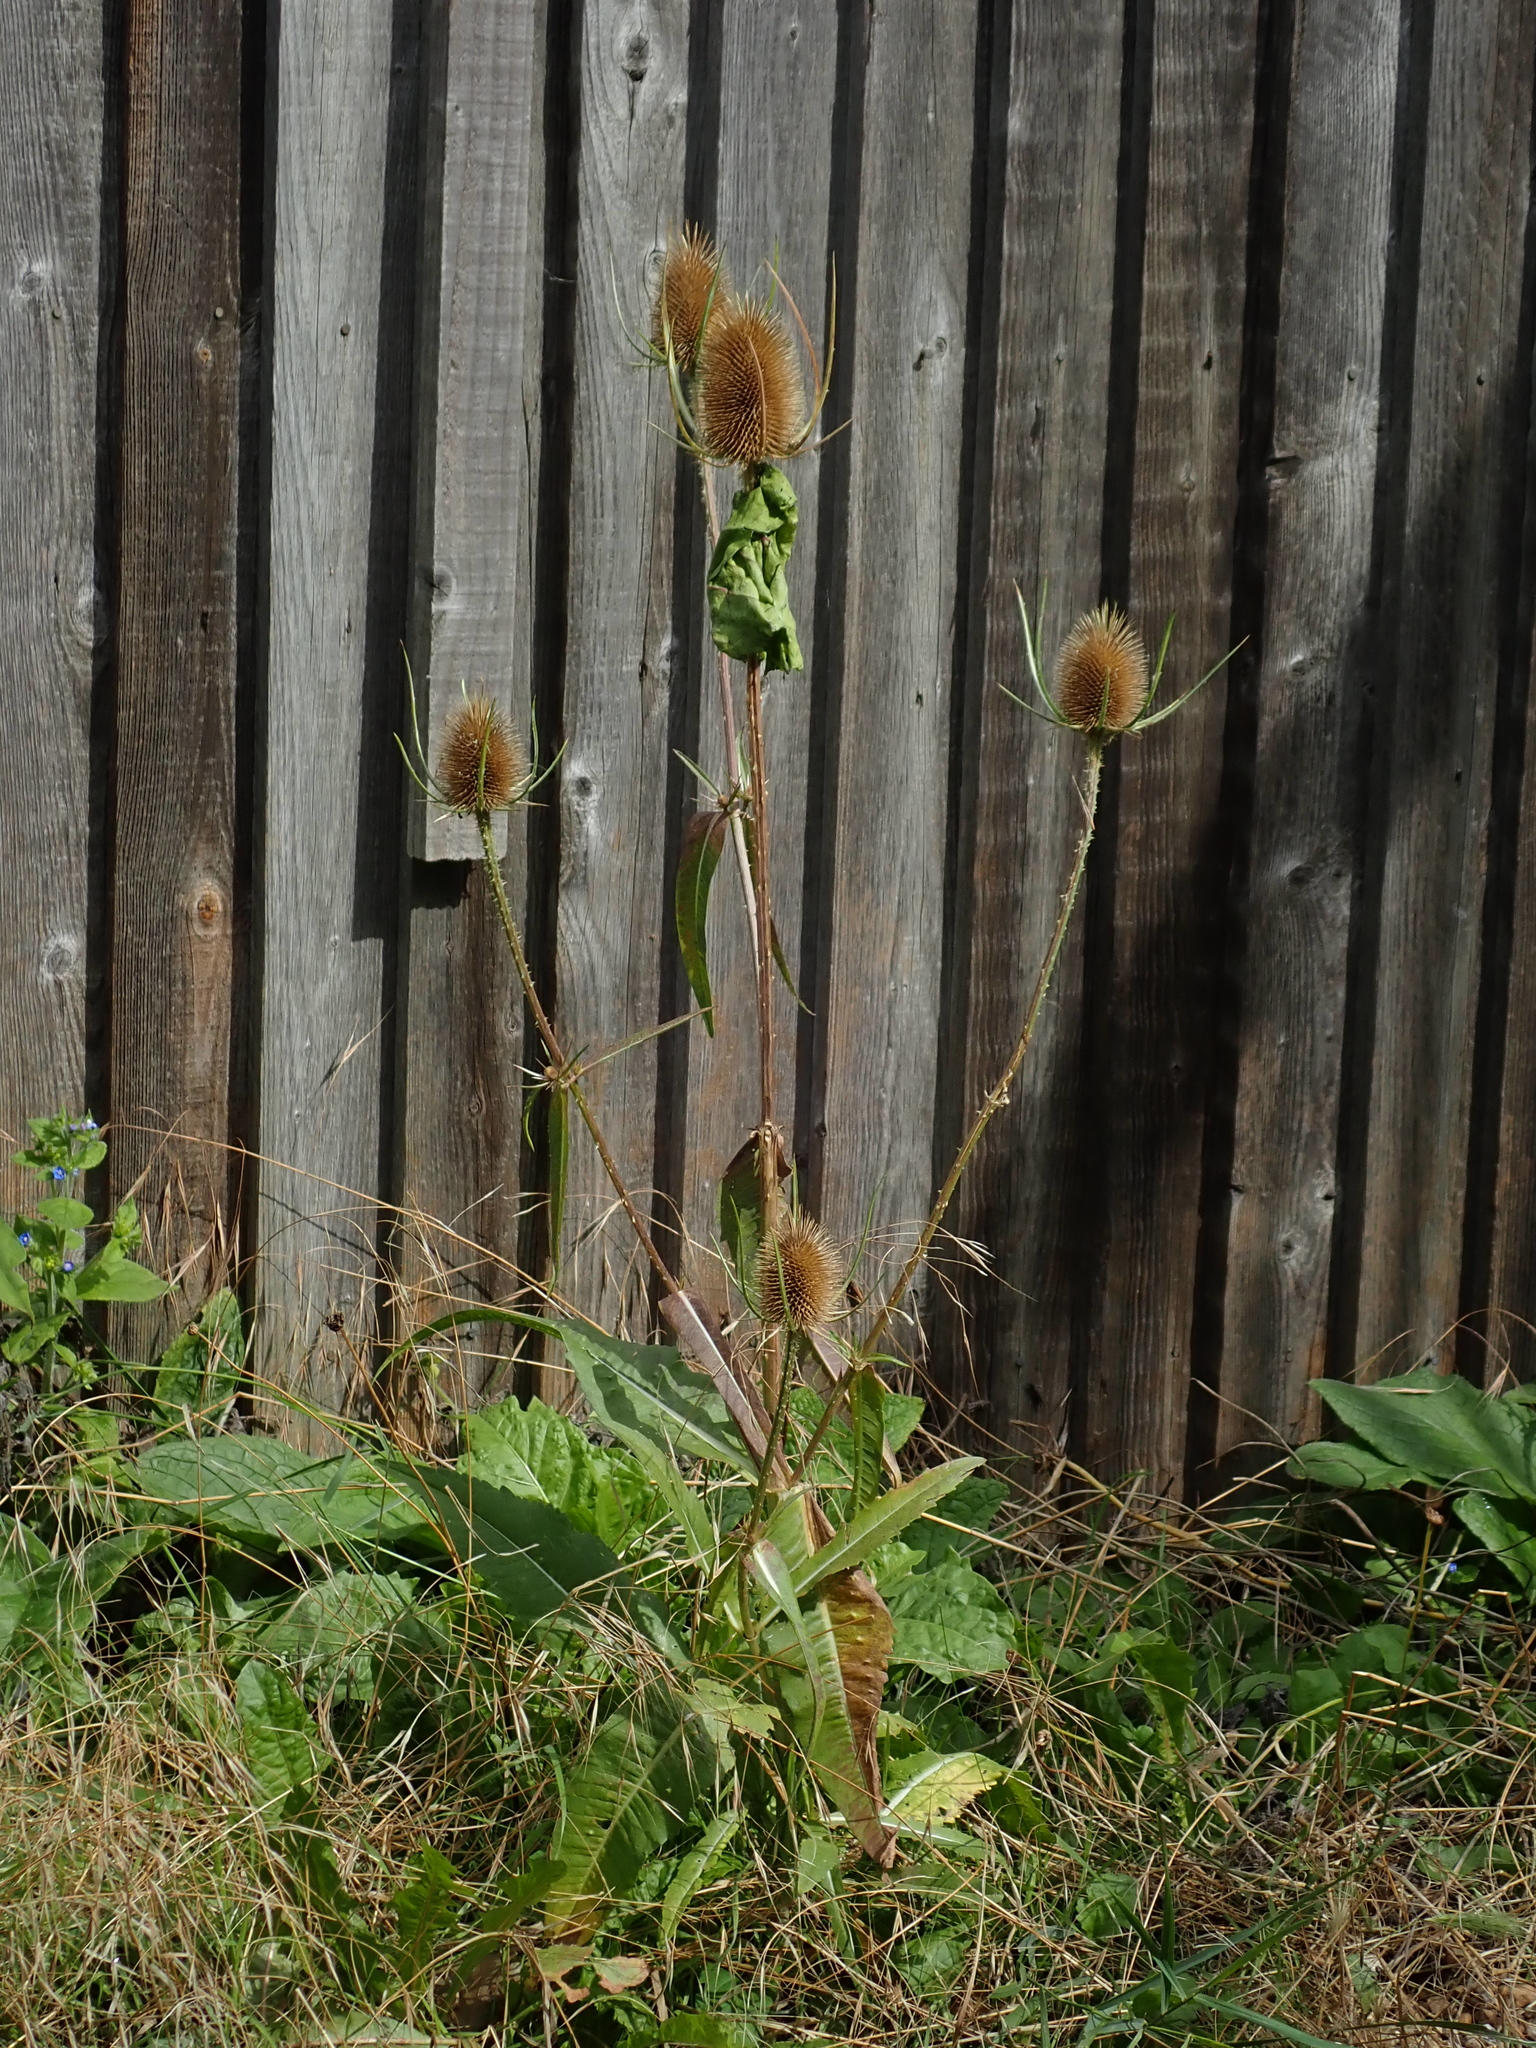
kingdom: Plantae
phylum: Tracheophyta
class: Magnoliopsida
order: Dipsacales
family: Caprifoliaceae
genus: Dipsacus
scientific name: Dipsacus fullonum
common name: Teasel
